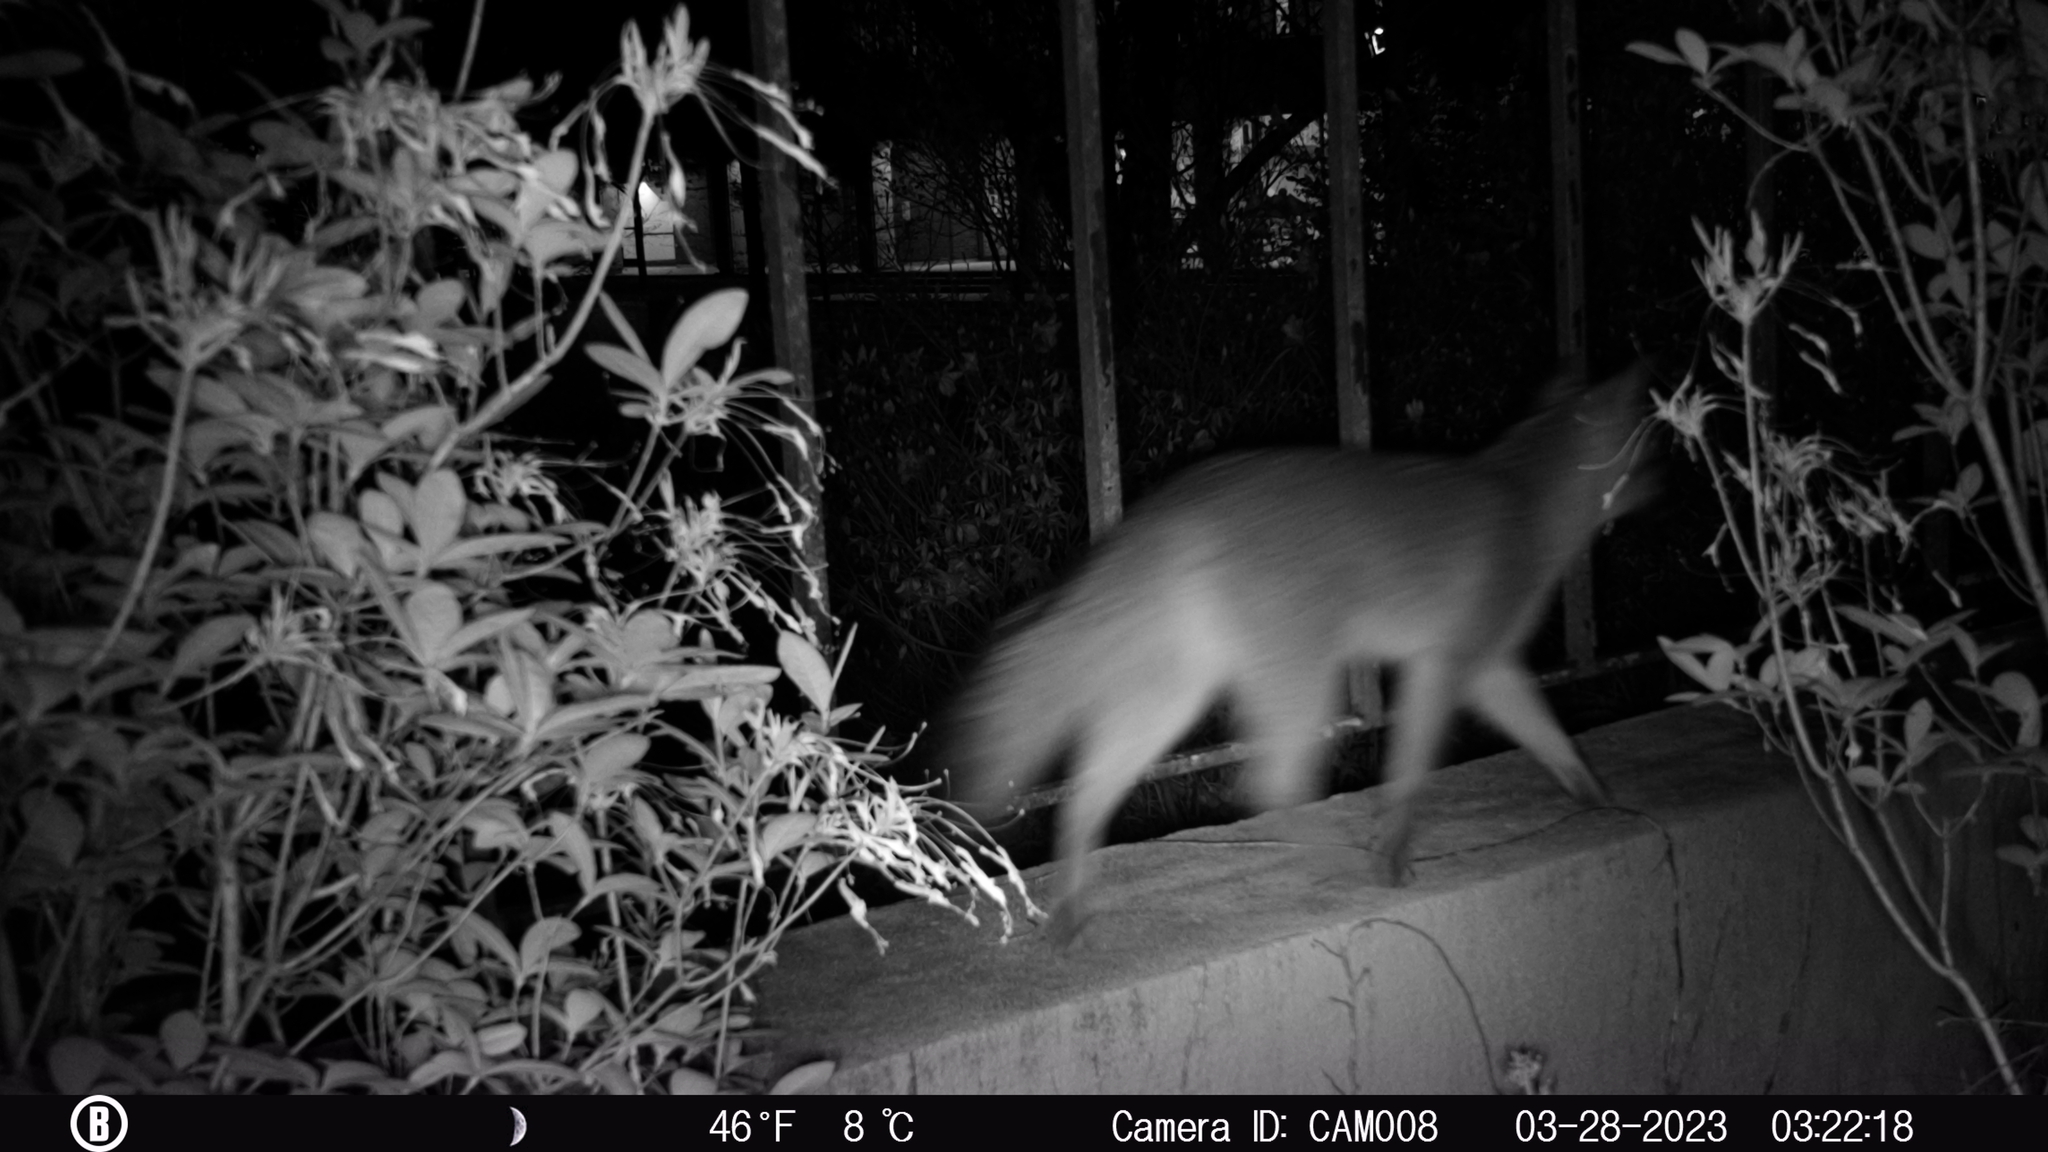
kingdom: Animalia
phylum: Chordata
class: Mammalia
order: Carnivora
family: Canidae
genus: Urocyon
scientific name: Urocyon cinereoargenteus
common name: Gray fox
